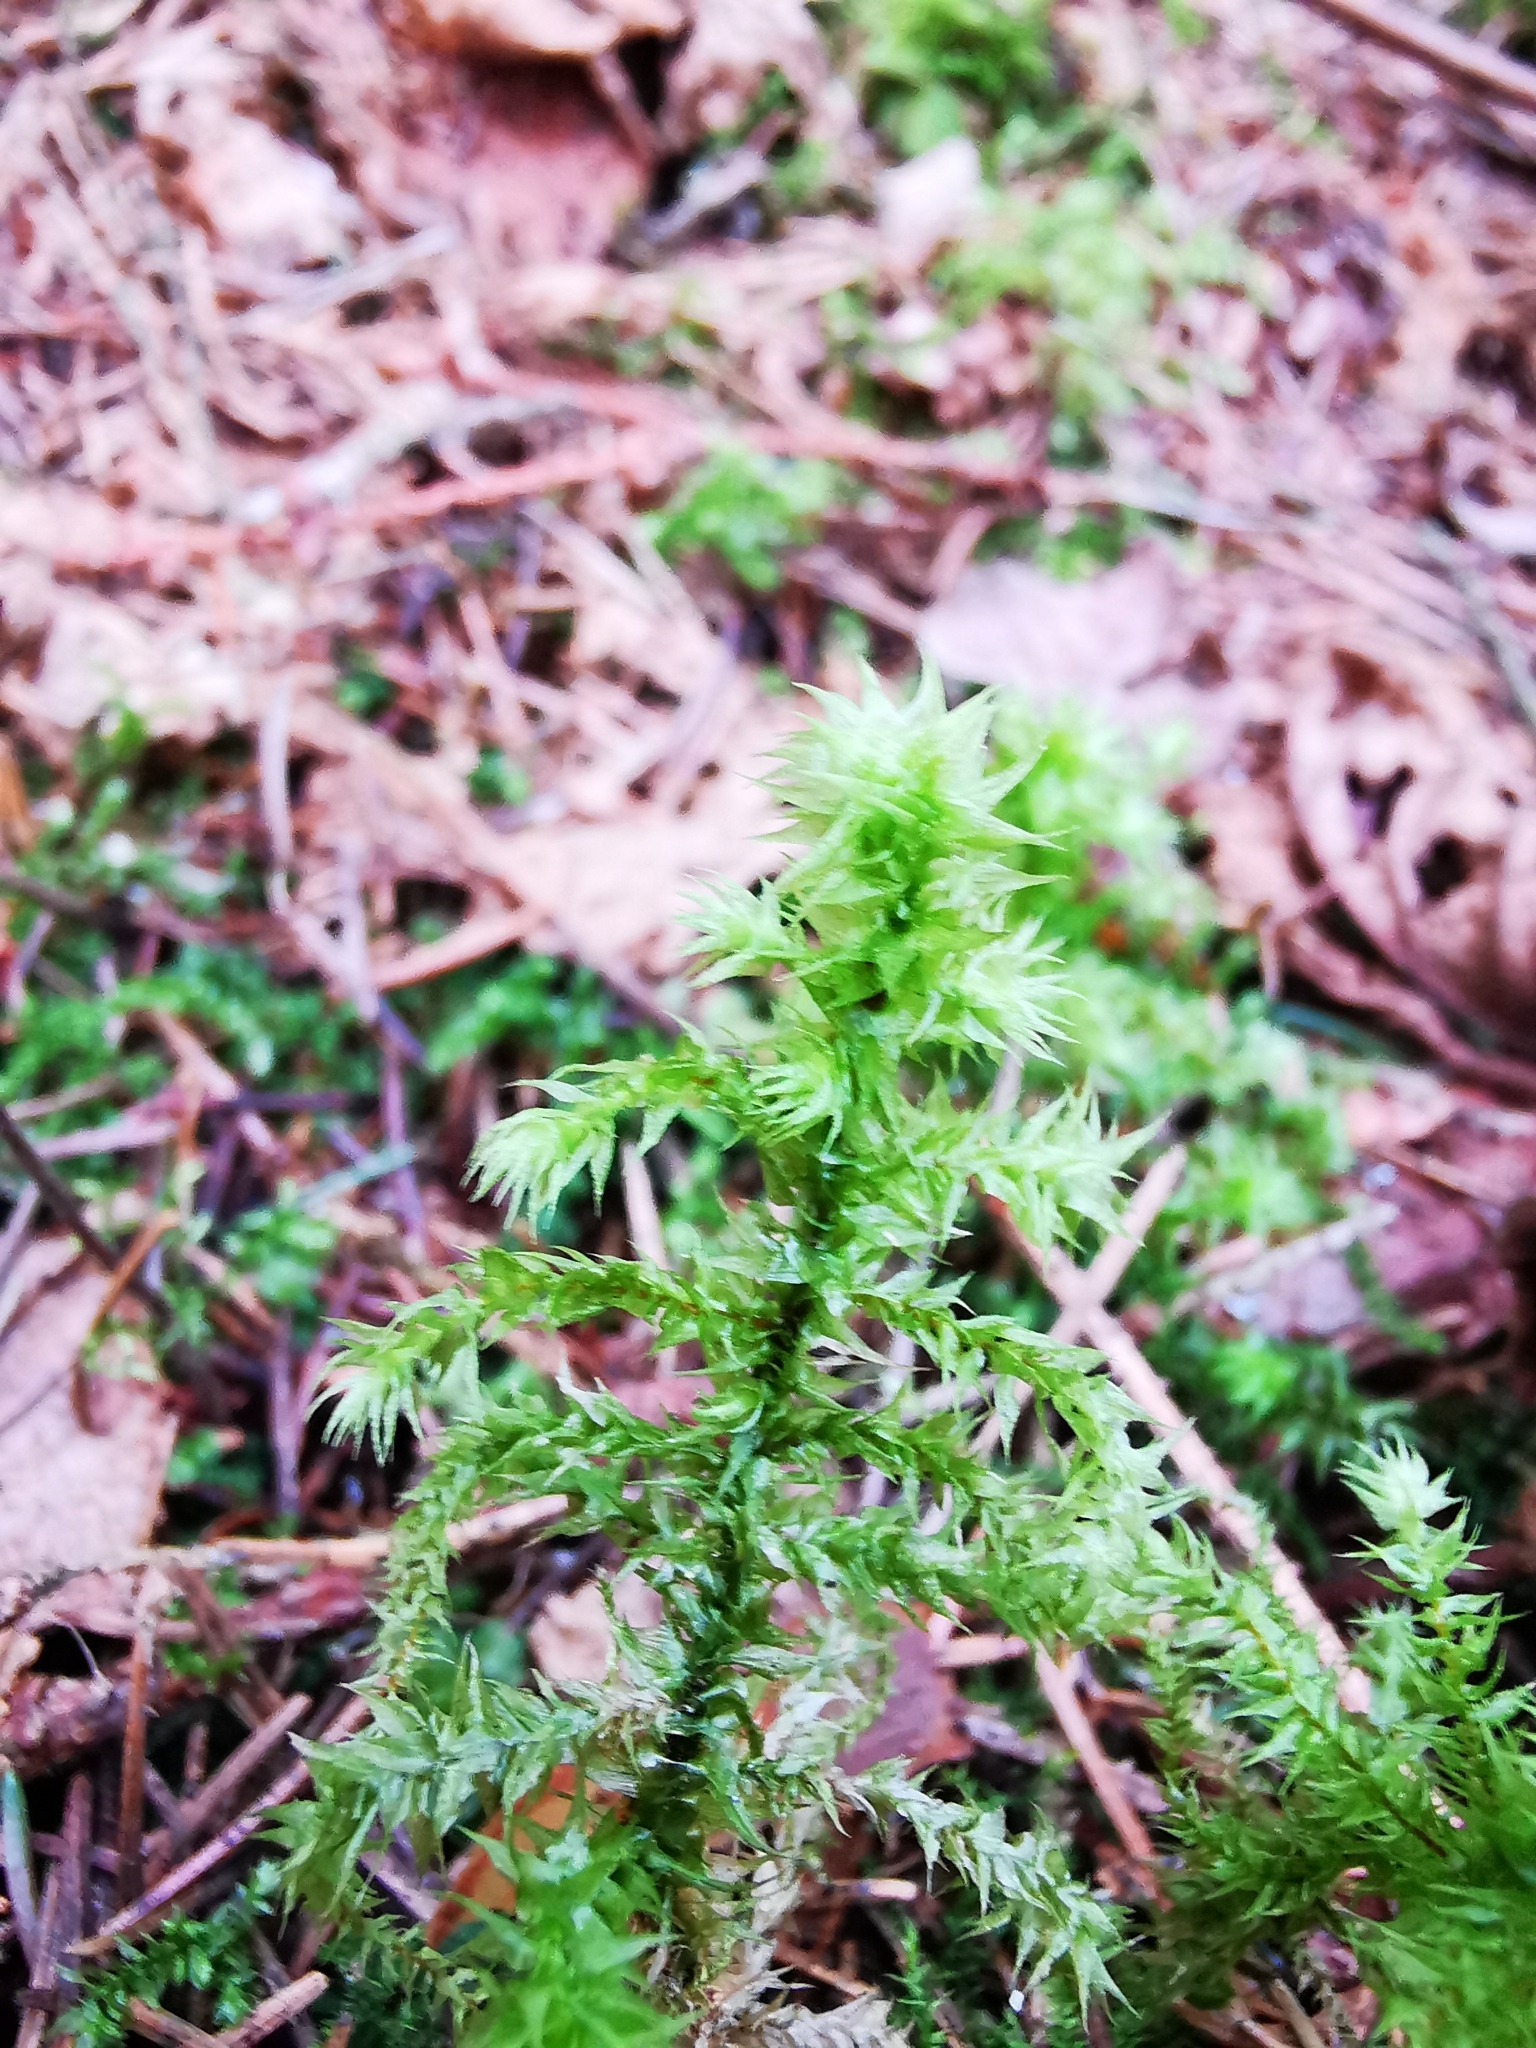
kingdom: Plantae
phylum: Bryophyta
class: Bryopsida
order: Hypnales
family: Hylocomiaceae
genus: Hylocomiadelphus
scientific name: Hylocomiadelphus triquetrus
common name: Rough goose neck moss
